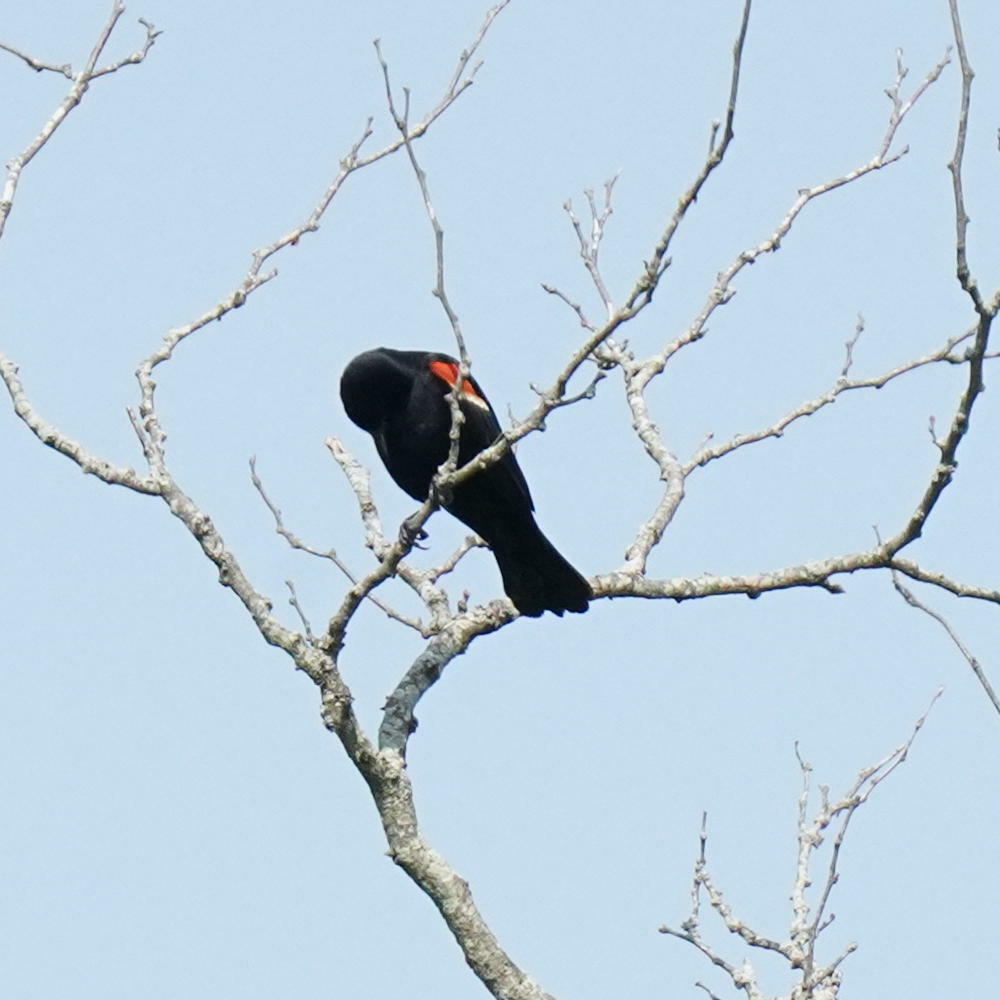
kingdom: Animalia
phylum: Chordata
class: Aves
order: Passeriformes
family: Icteridae
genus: Agelaius
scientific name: Agelaius phoeniceus
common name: Red-winged blackbird
